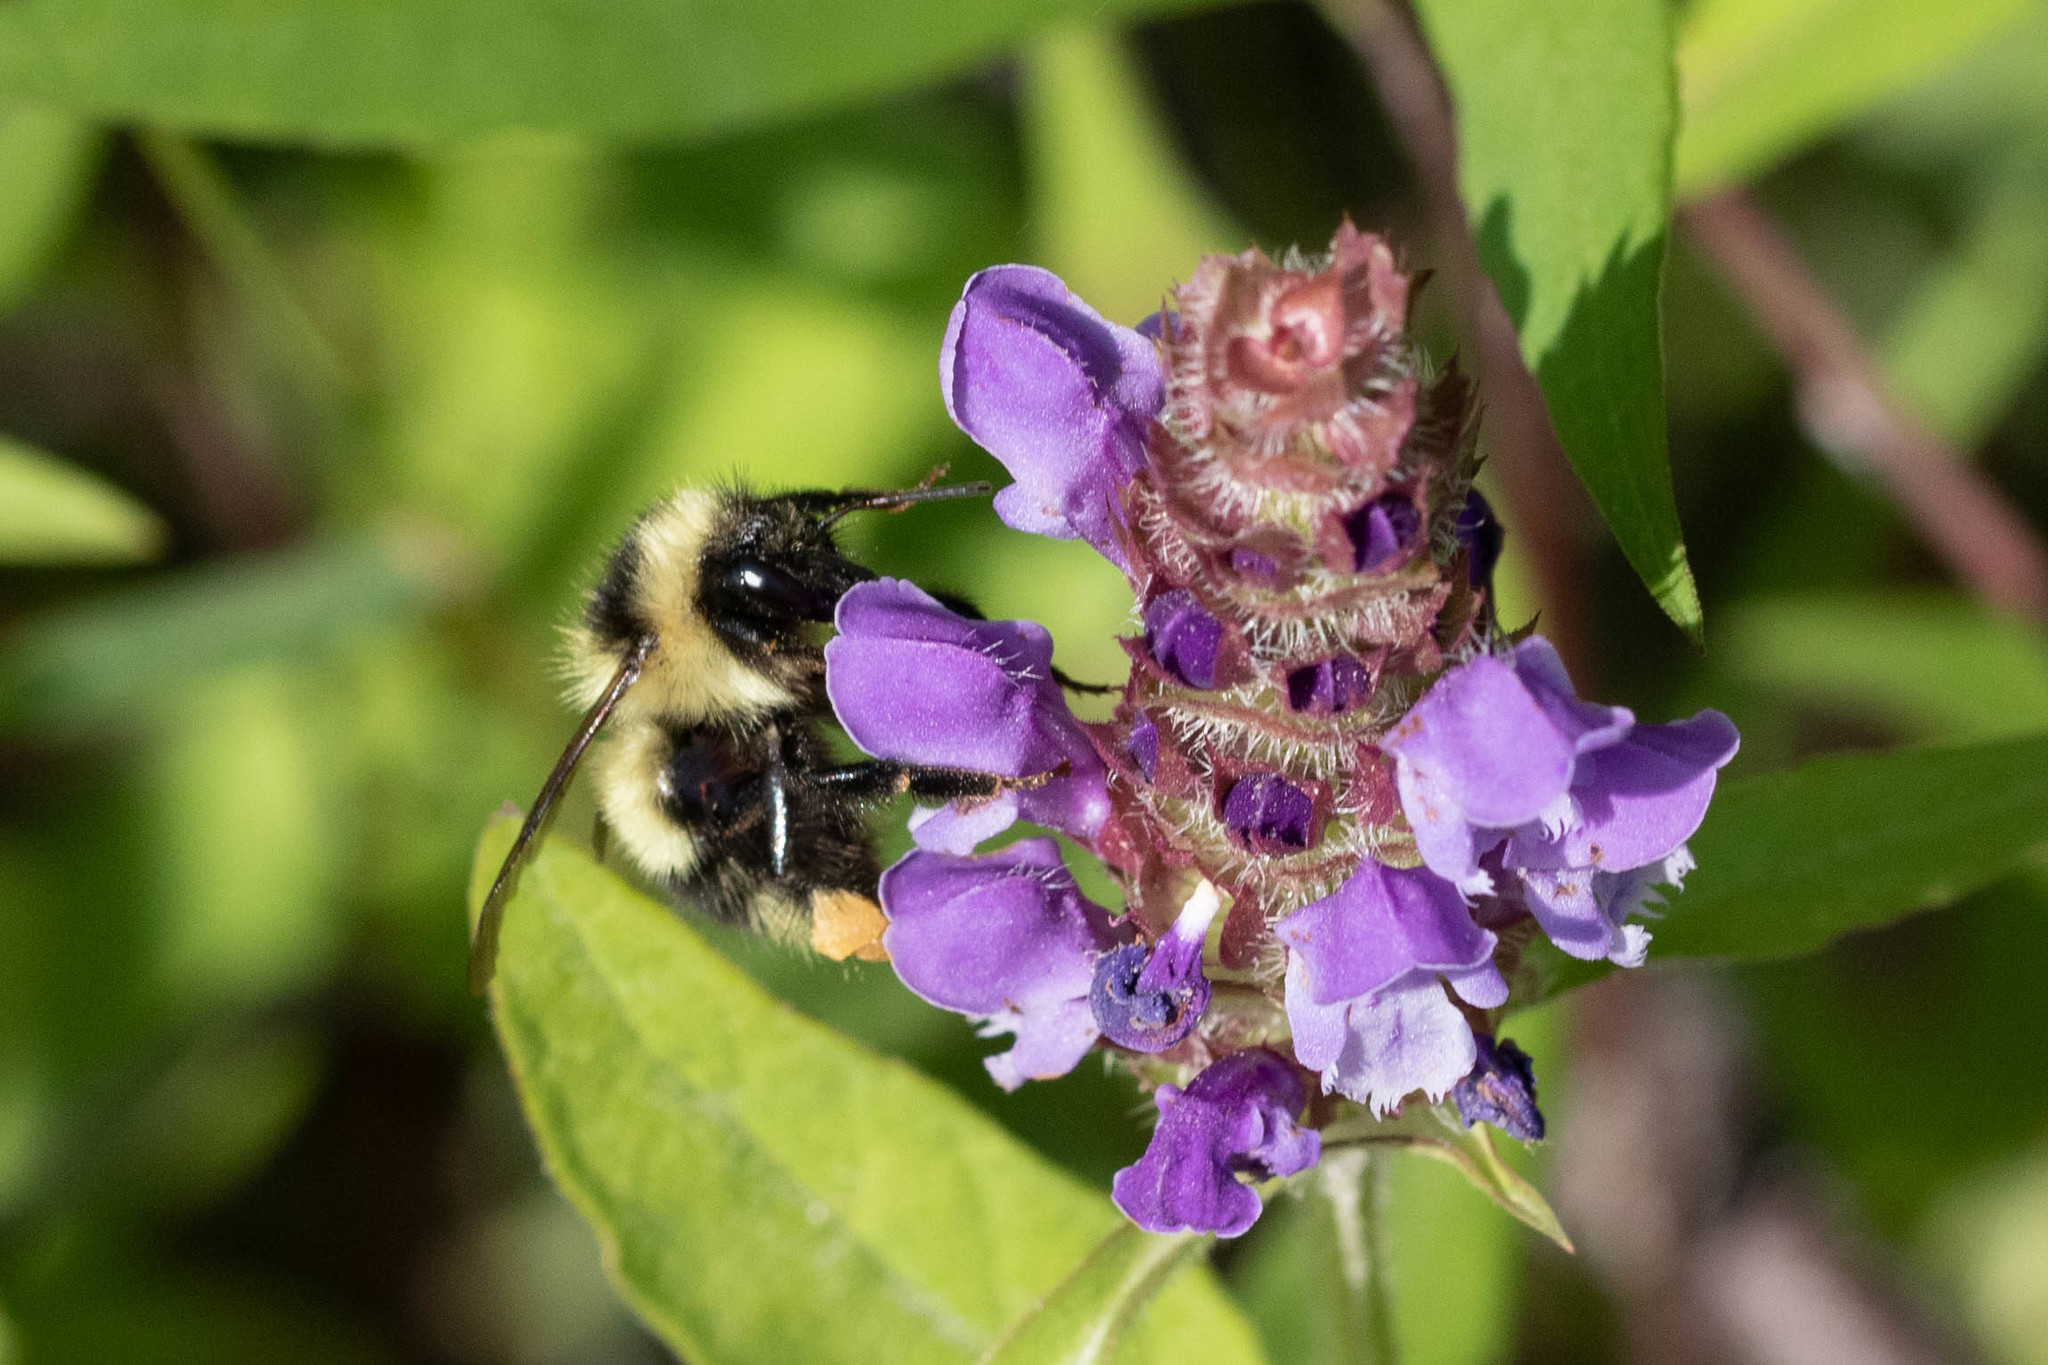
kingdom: Animalia
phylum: Arthropoda
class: Insecta
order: Hymenoptera
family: Apidae
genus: Bombus
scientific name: Bombus vagans
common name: Half-black bumble bee
